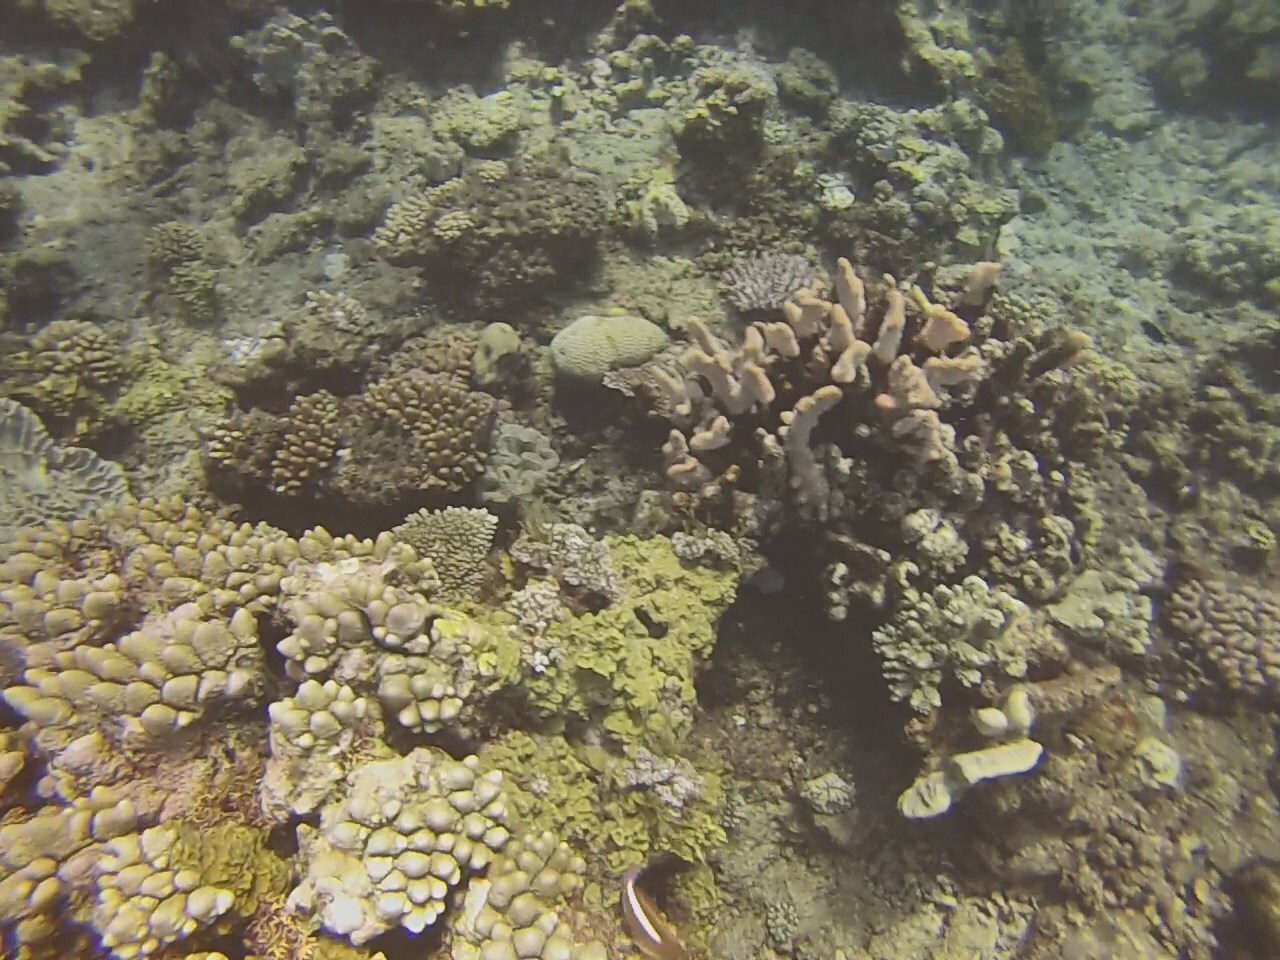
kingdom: Animalia
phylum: Chordata
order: Perciformes
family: Cirrhitidae
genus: Paracirrhites
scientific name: Paracirrhites arcatus
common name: Arc-eye hawkfish
